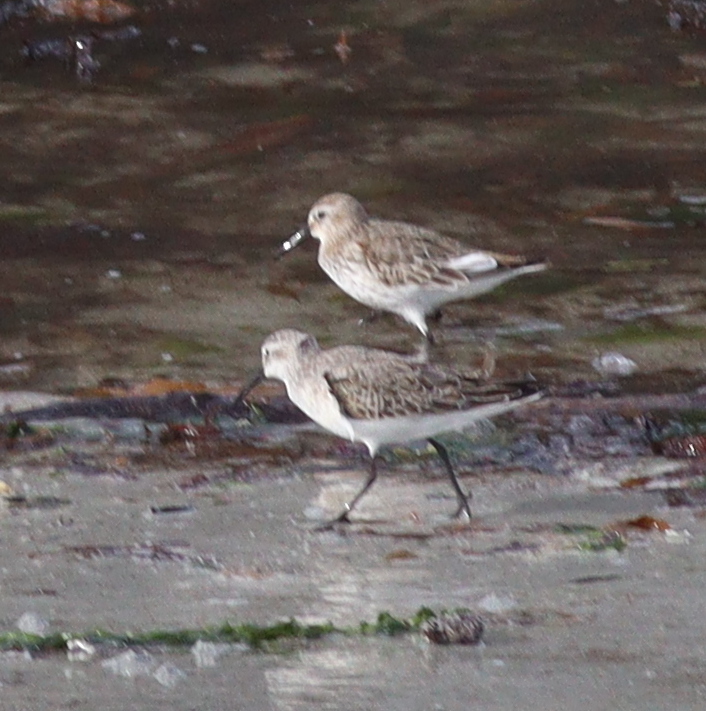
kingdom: Animalia
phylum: Chordata
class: Aves
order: Charadriiformes
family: Scolopacidae
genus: Calidris
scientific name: Calidris alpina
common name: Dunlin
